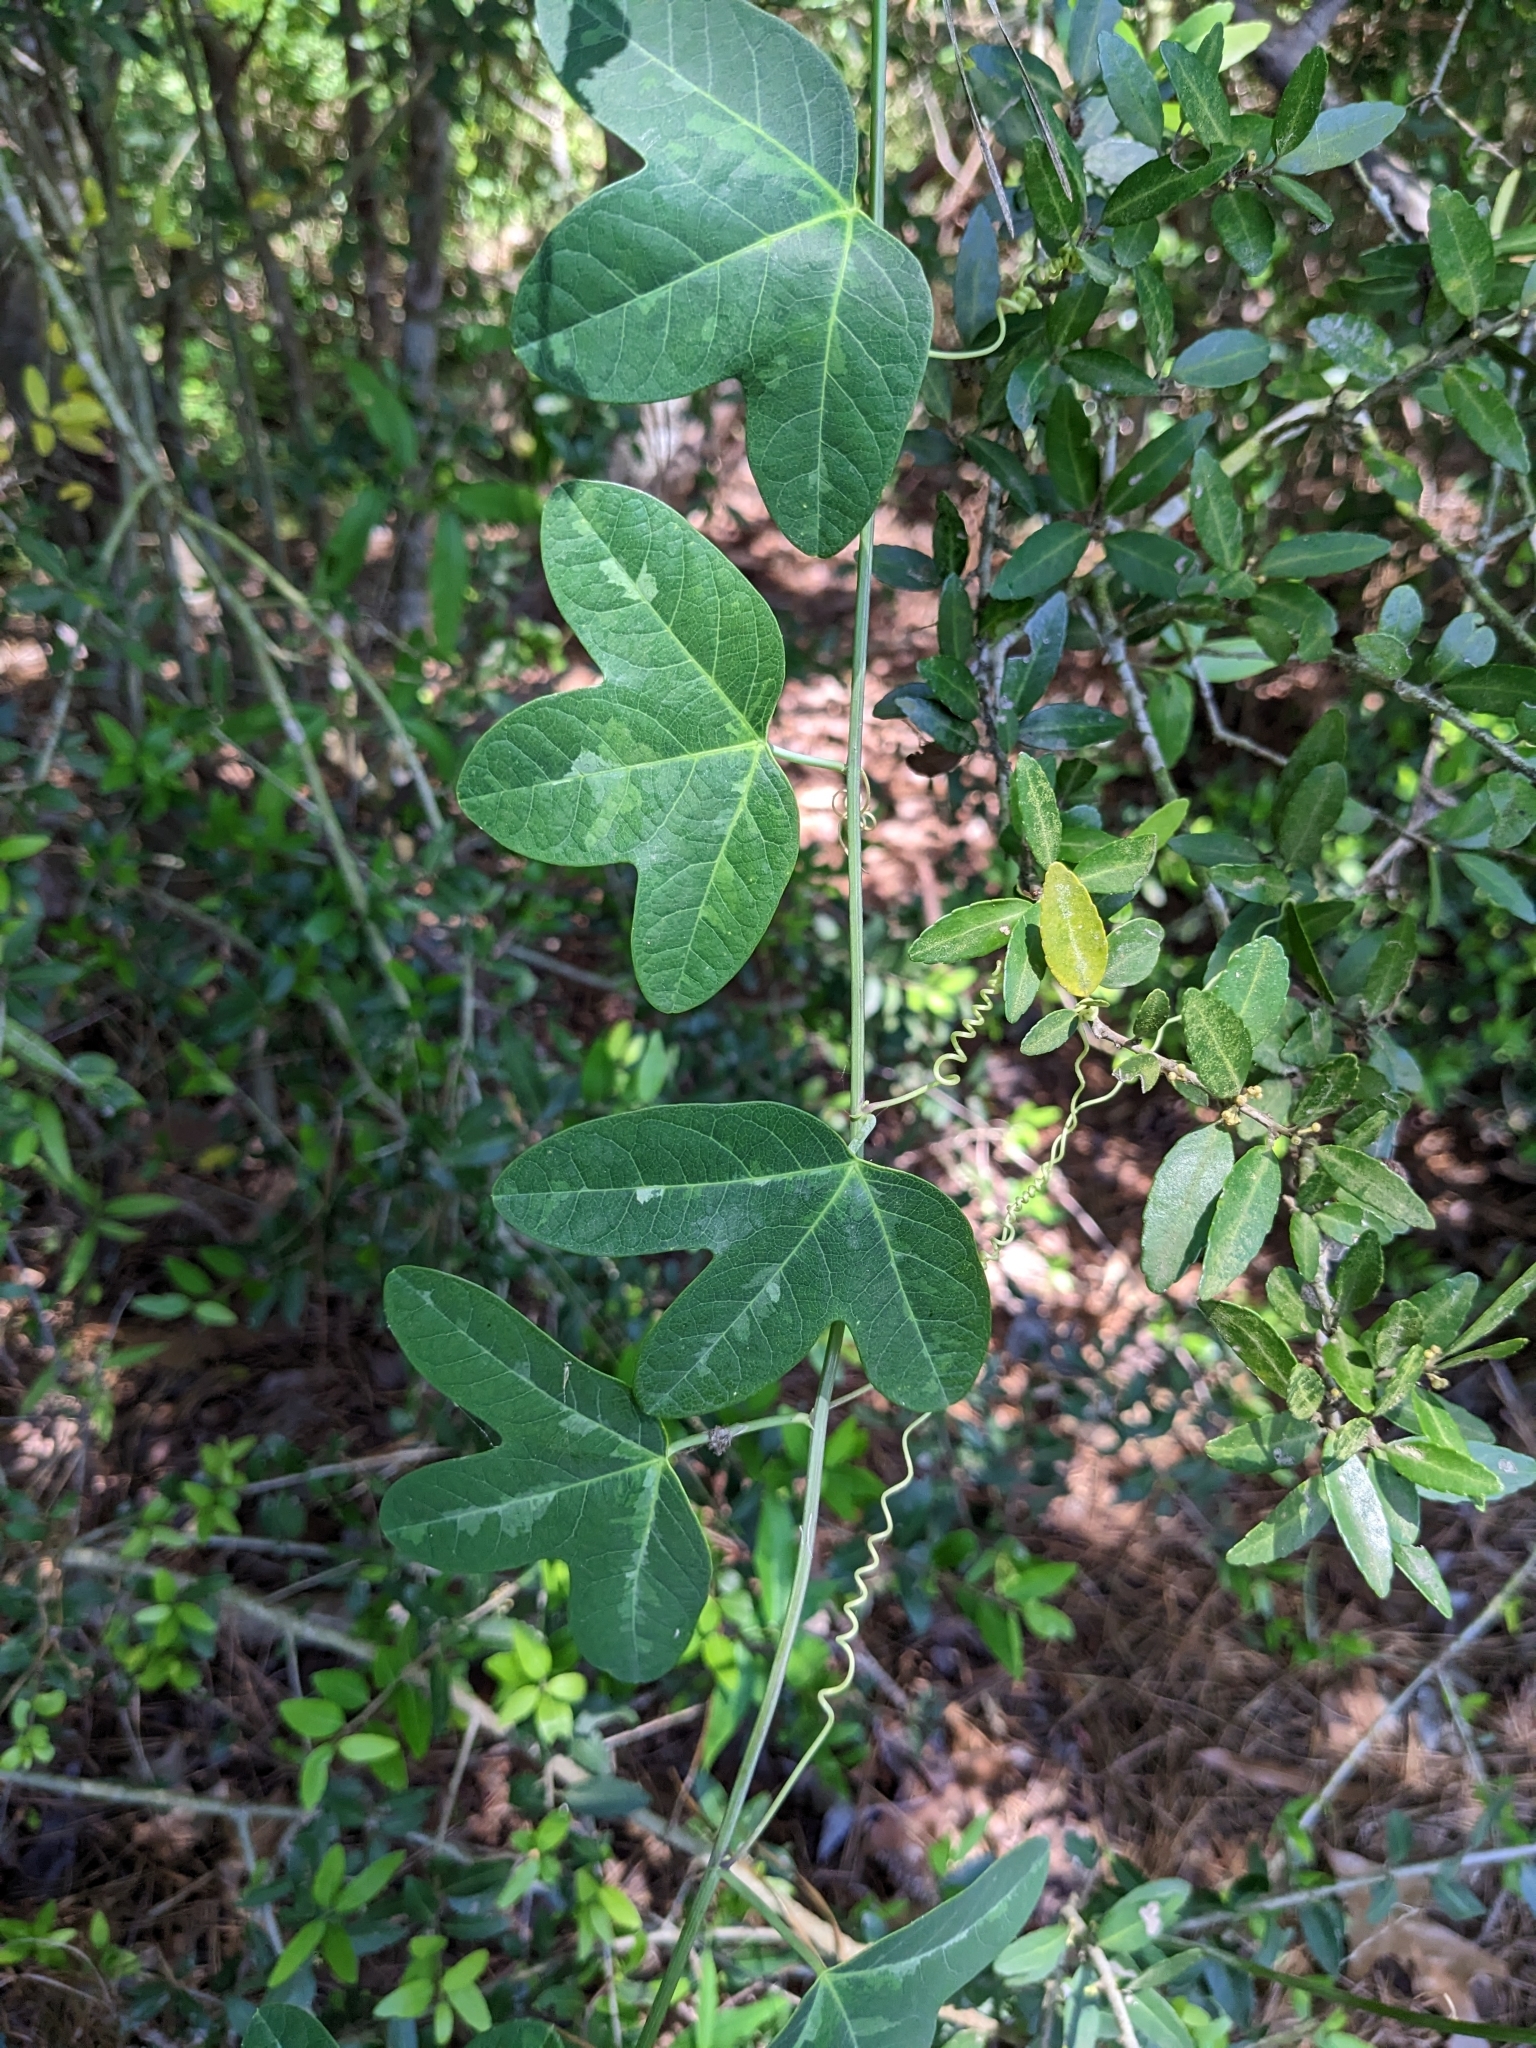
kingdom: Plantae
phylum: Tracheophyta
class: Magnoliopsida
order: Malpighiales
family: Passifloraceae
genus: Passiflora
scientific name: Passiflora lutea
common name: Yellow passionflower
